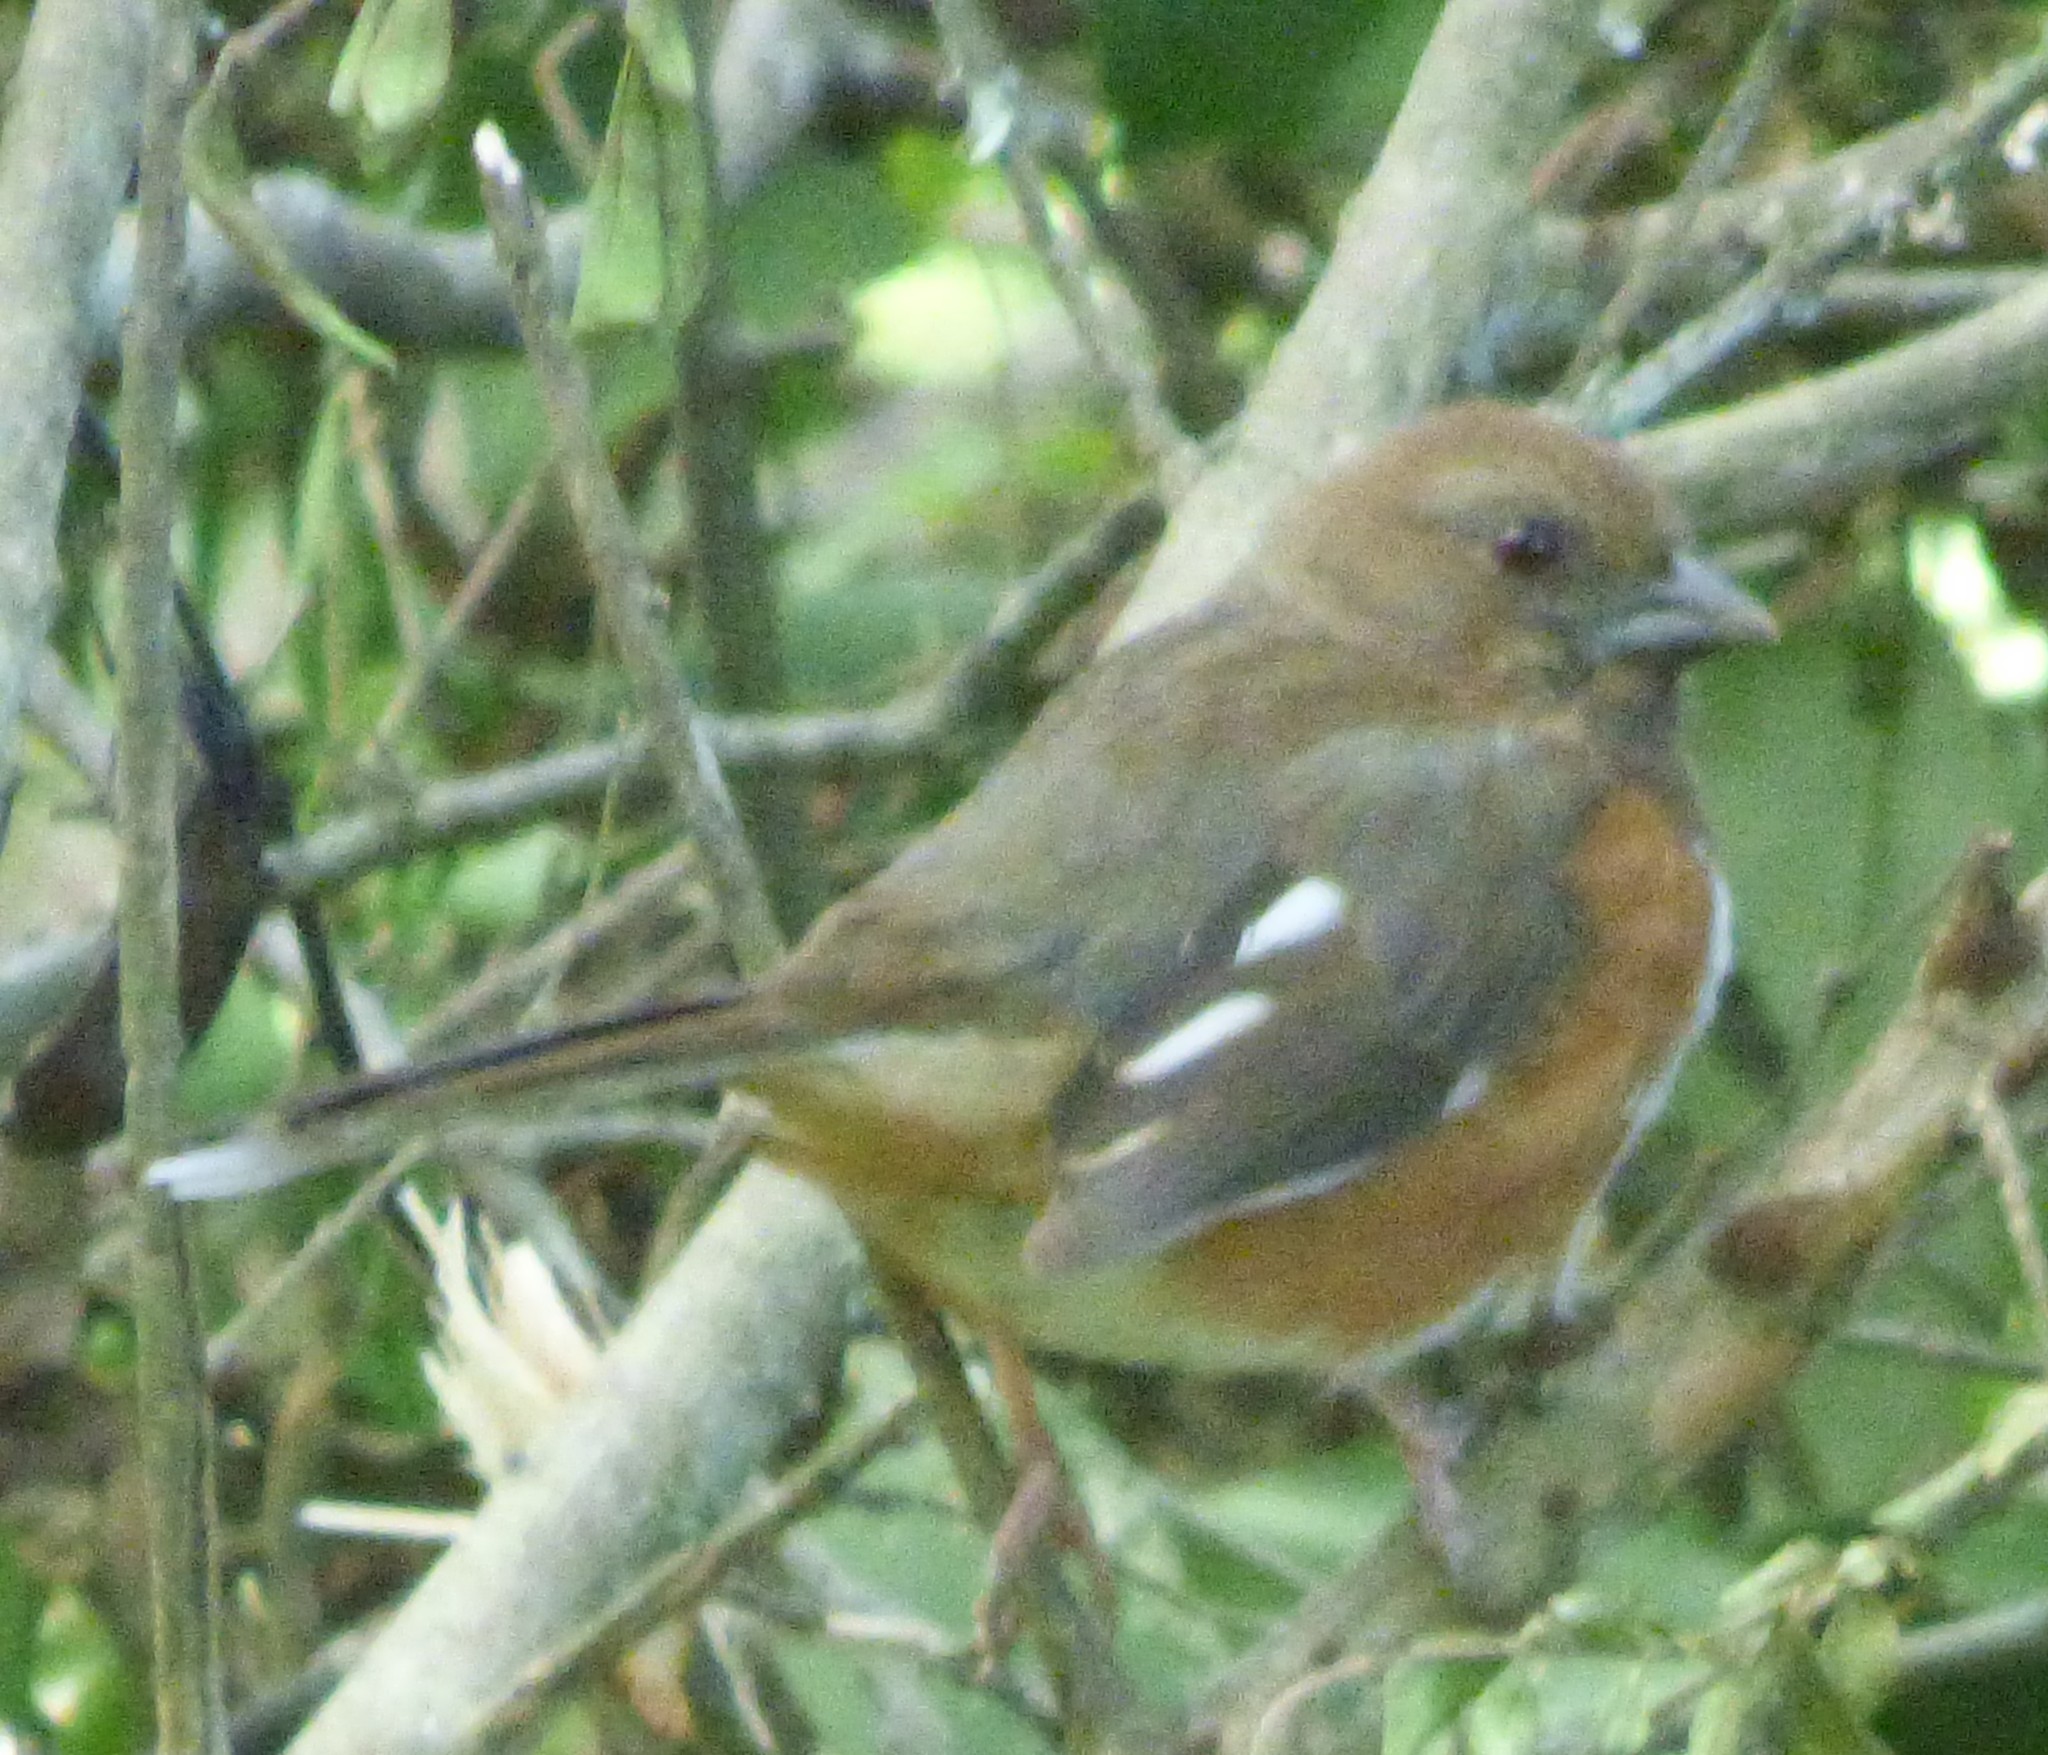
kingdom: Animalia
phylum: Chordata
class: Aves
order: Passeriformes
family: Passerellidae
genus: Pipilo
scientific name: Pipilo erythrophthalmus
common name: Eastern towhee
